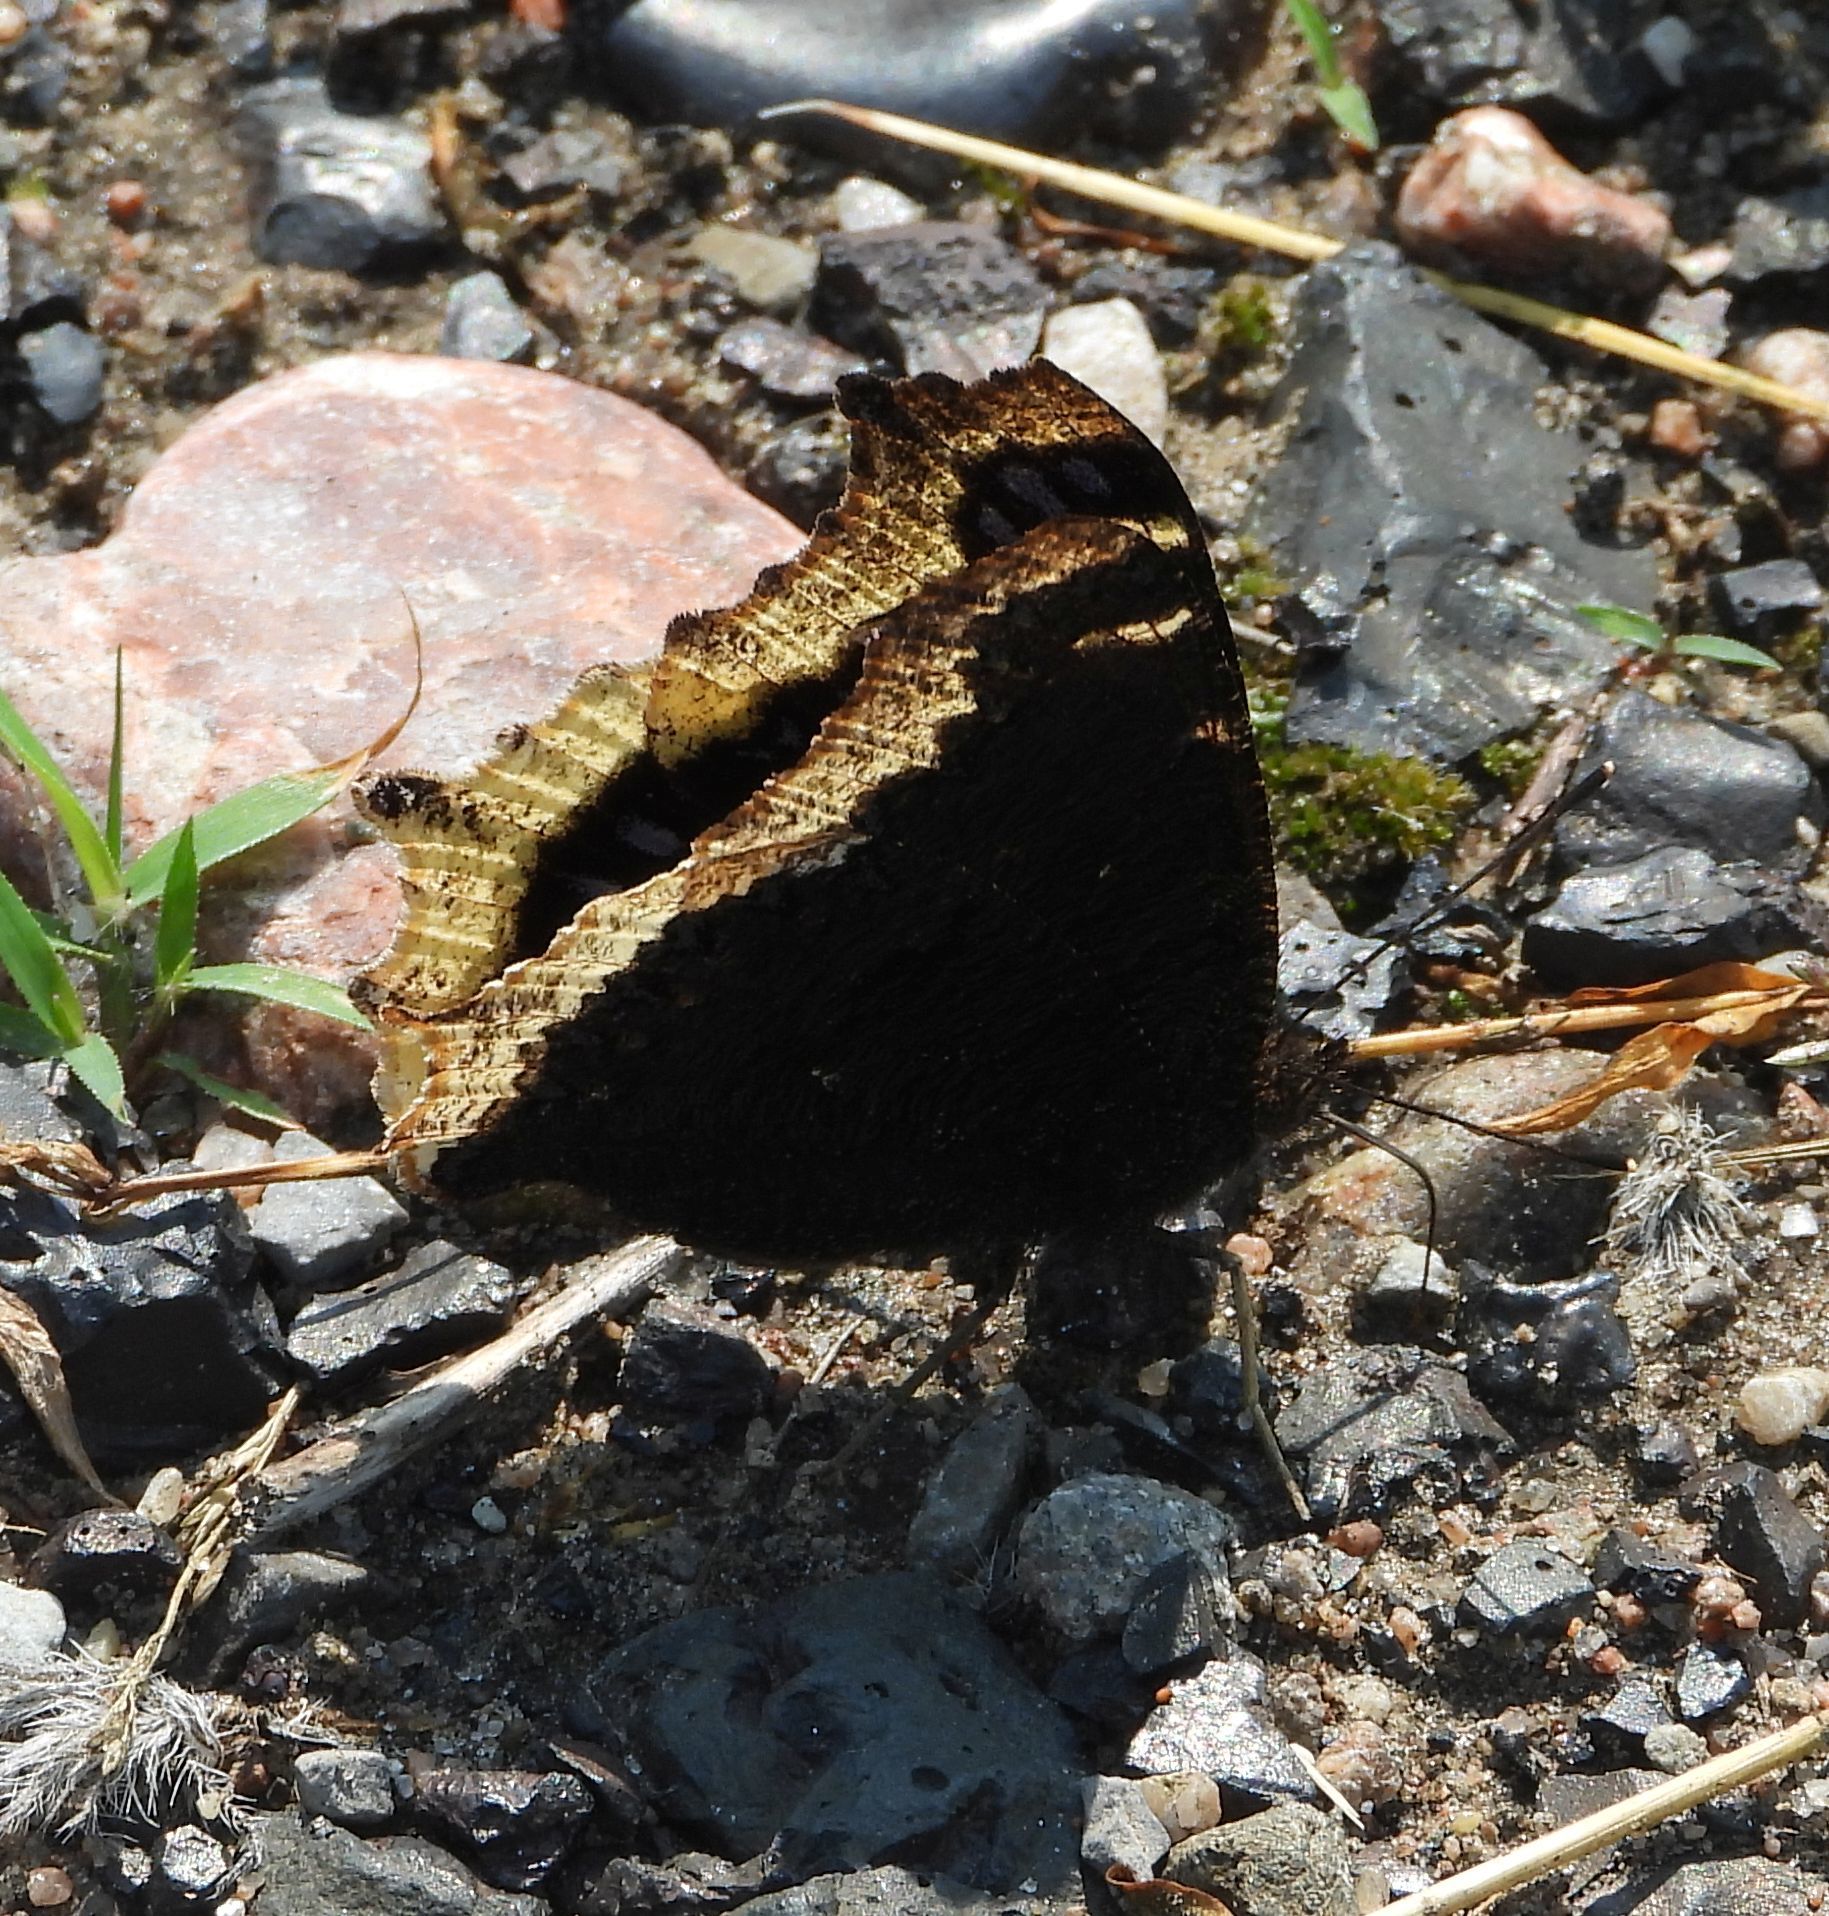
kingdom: Animalia
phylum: Arthropoda
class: Insecta
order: Lepidoptera
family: Nymphalidae
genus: Nymphalis
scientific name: Nymphalis antiopa
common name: Camberwell beauty
